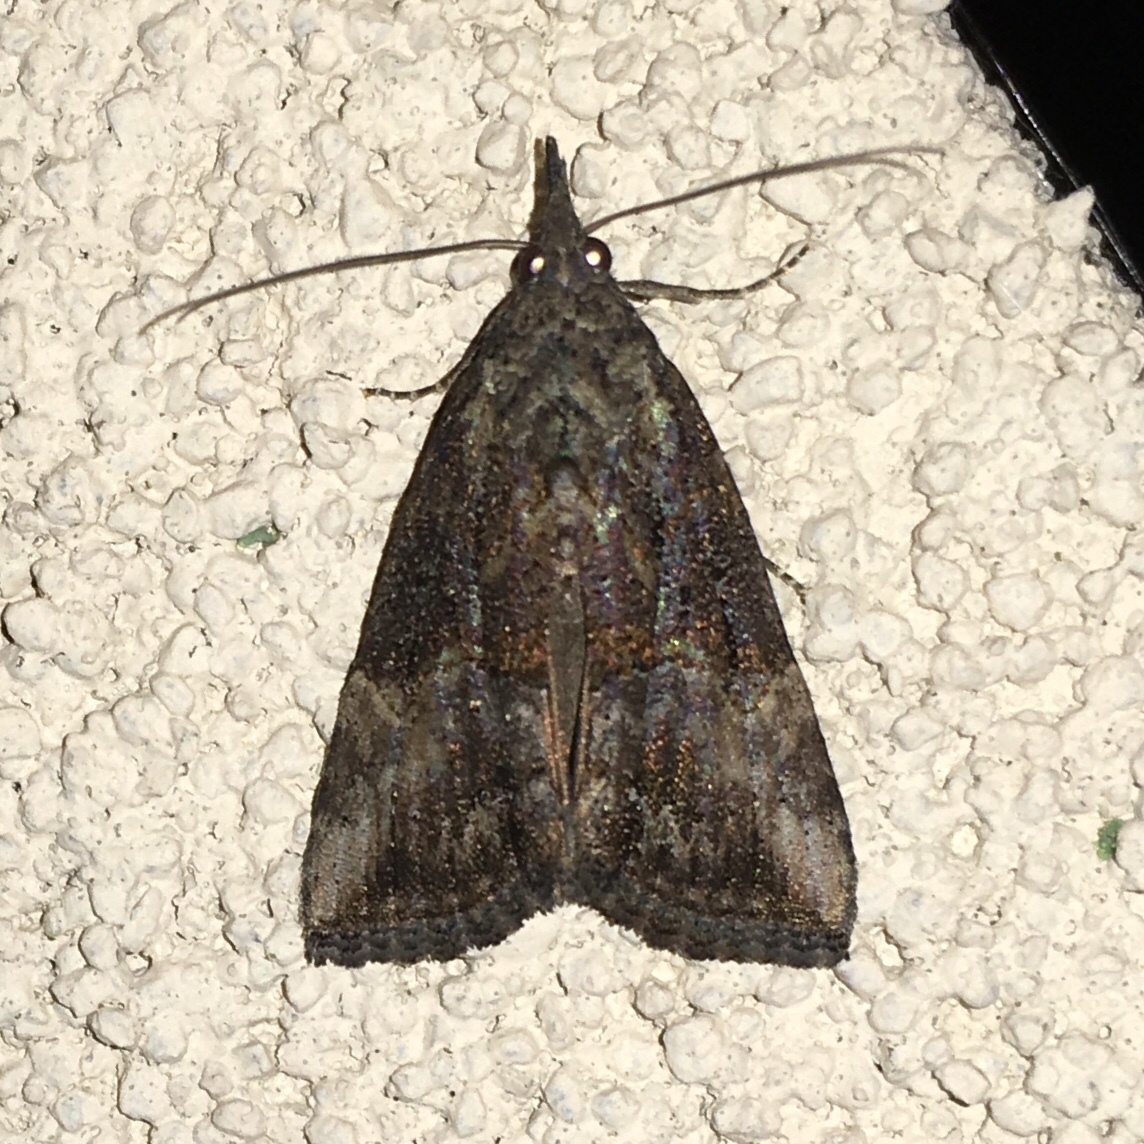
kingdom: Animalia
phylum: Arthropoda
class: Insecta
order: Lepidoptera
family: Erebidae
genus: Hypena
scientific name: Hypena scabra
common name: Green cloverworm
